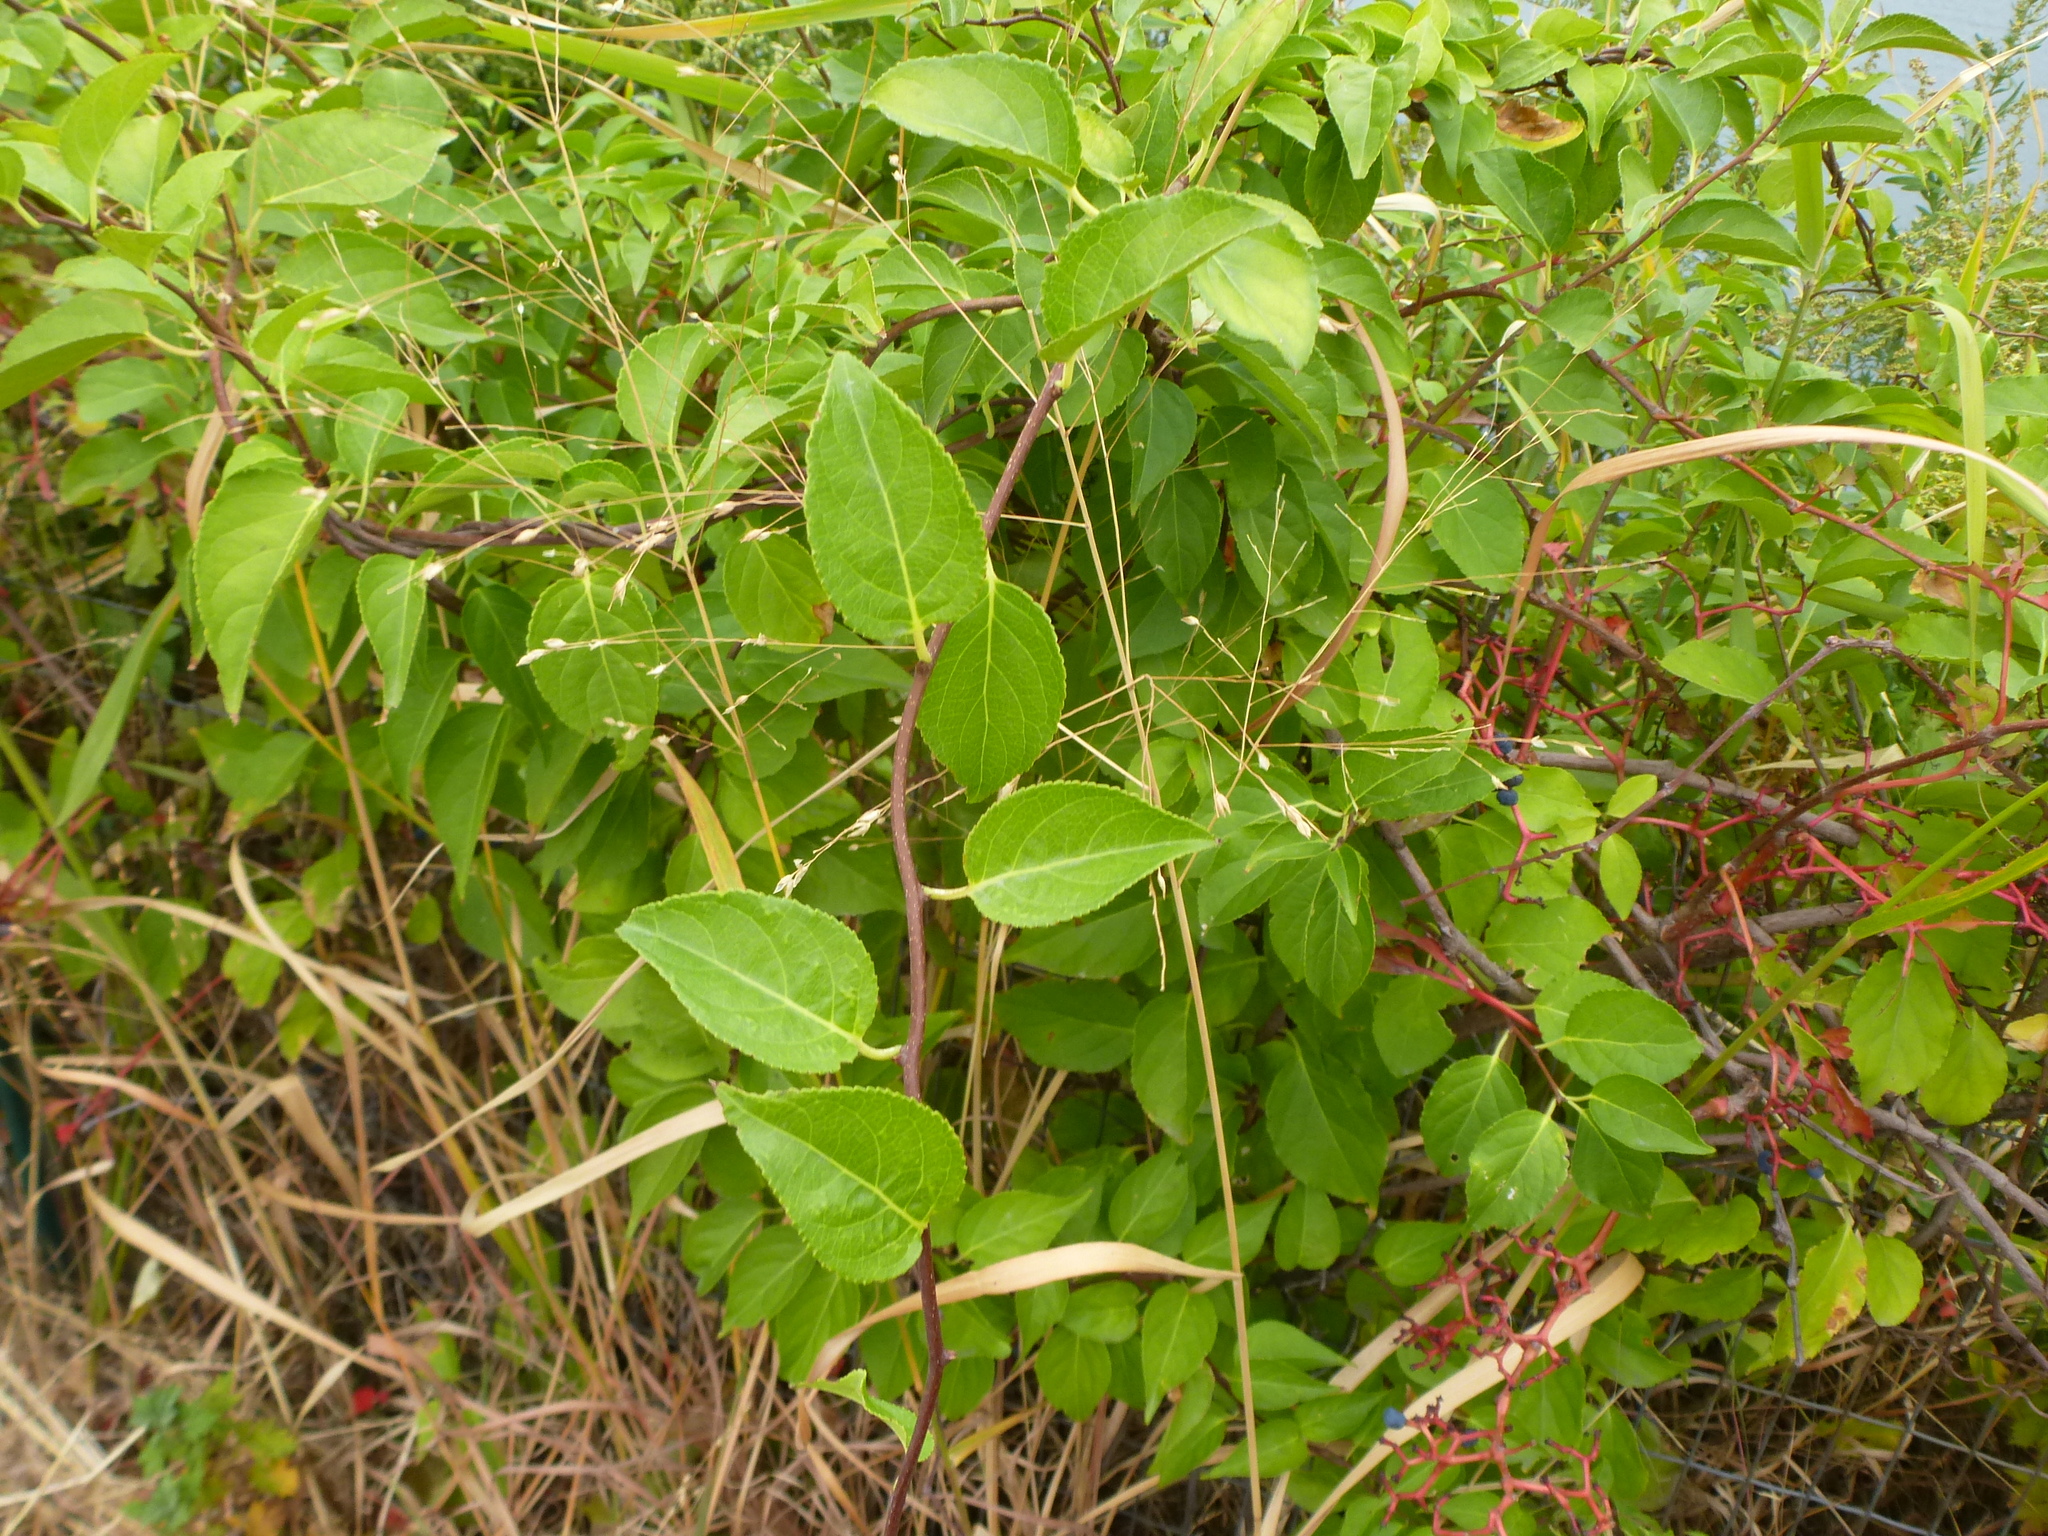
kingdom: Plantae
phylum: Tracheophyta
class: Magnoliopsida
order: Celastrales
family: Celastraceae
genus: Celastrus
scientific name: Celastrus orbiculatus
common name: Oriental bittersweet
